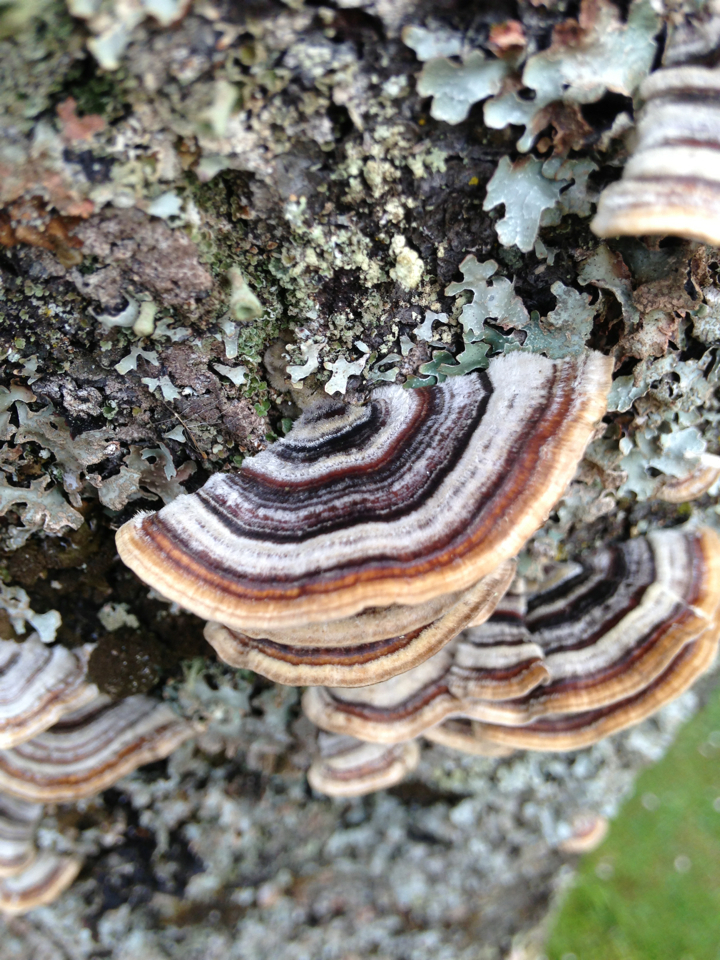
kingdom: Fungi
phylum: Basidiomycota
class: Agaricomycetes
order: Polyporales
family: Polyporaceae
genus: Trametes
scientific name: Trametes versicolor
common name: Turkeytail
